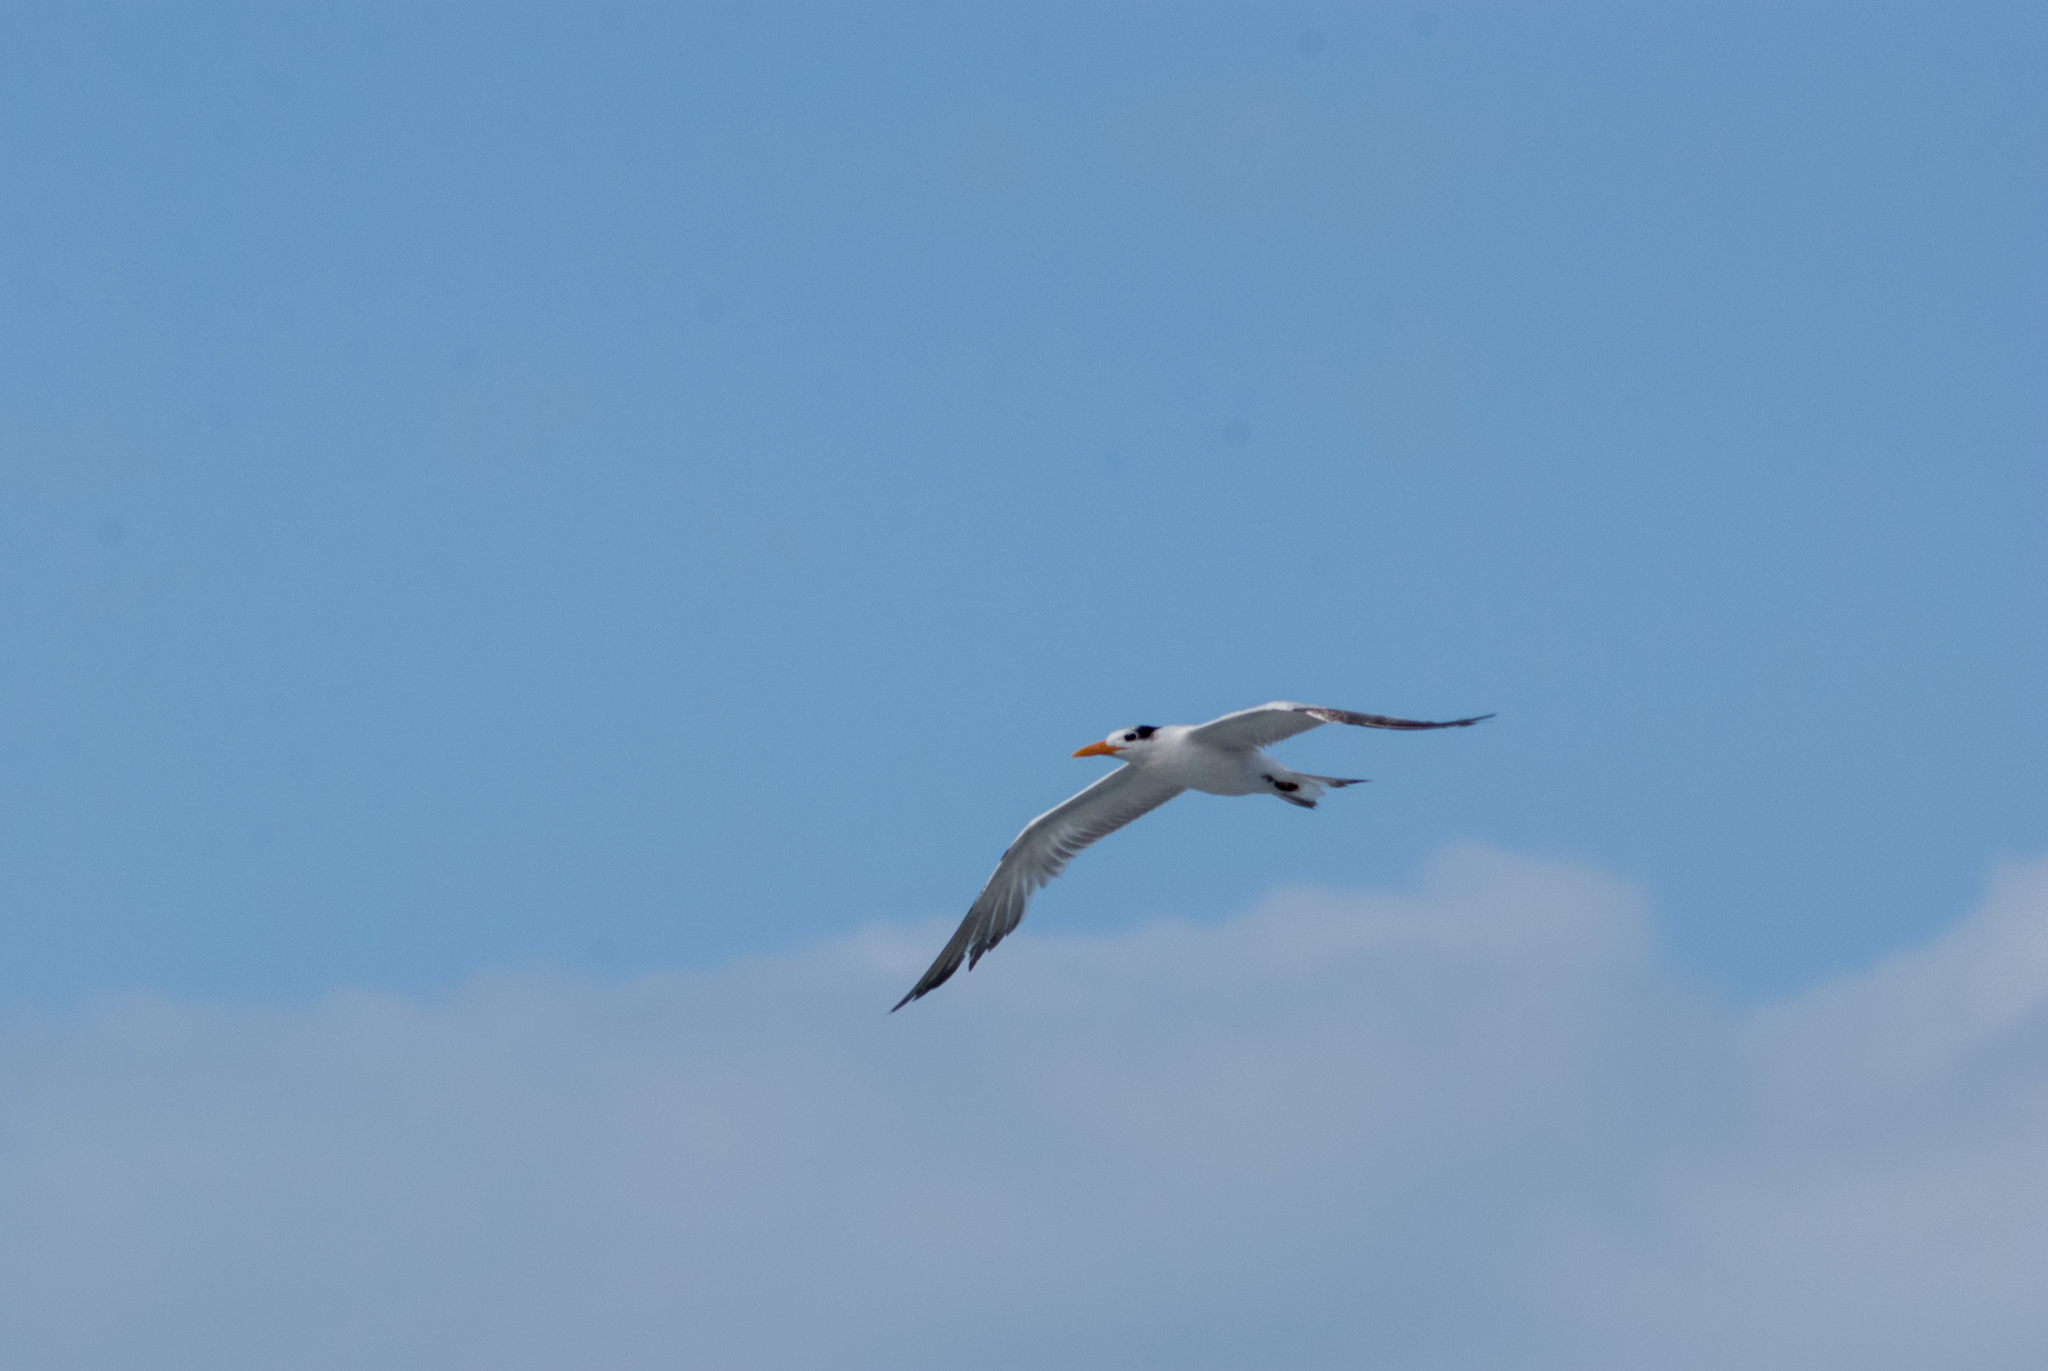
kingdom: Animalia
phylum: Chordata
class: Aves
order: Charadriiformes
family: Laridae
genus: Thalasseus
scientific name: Thalasseus maximus
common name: Royal tern
